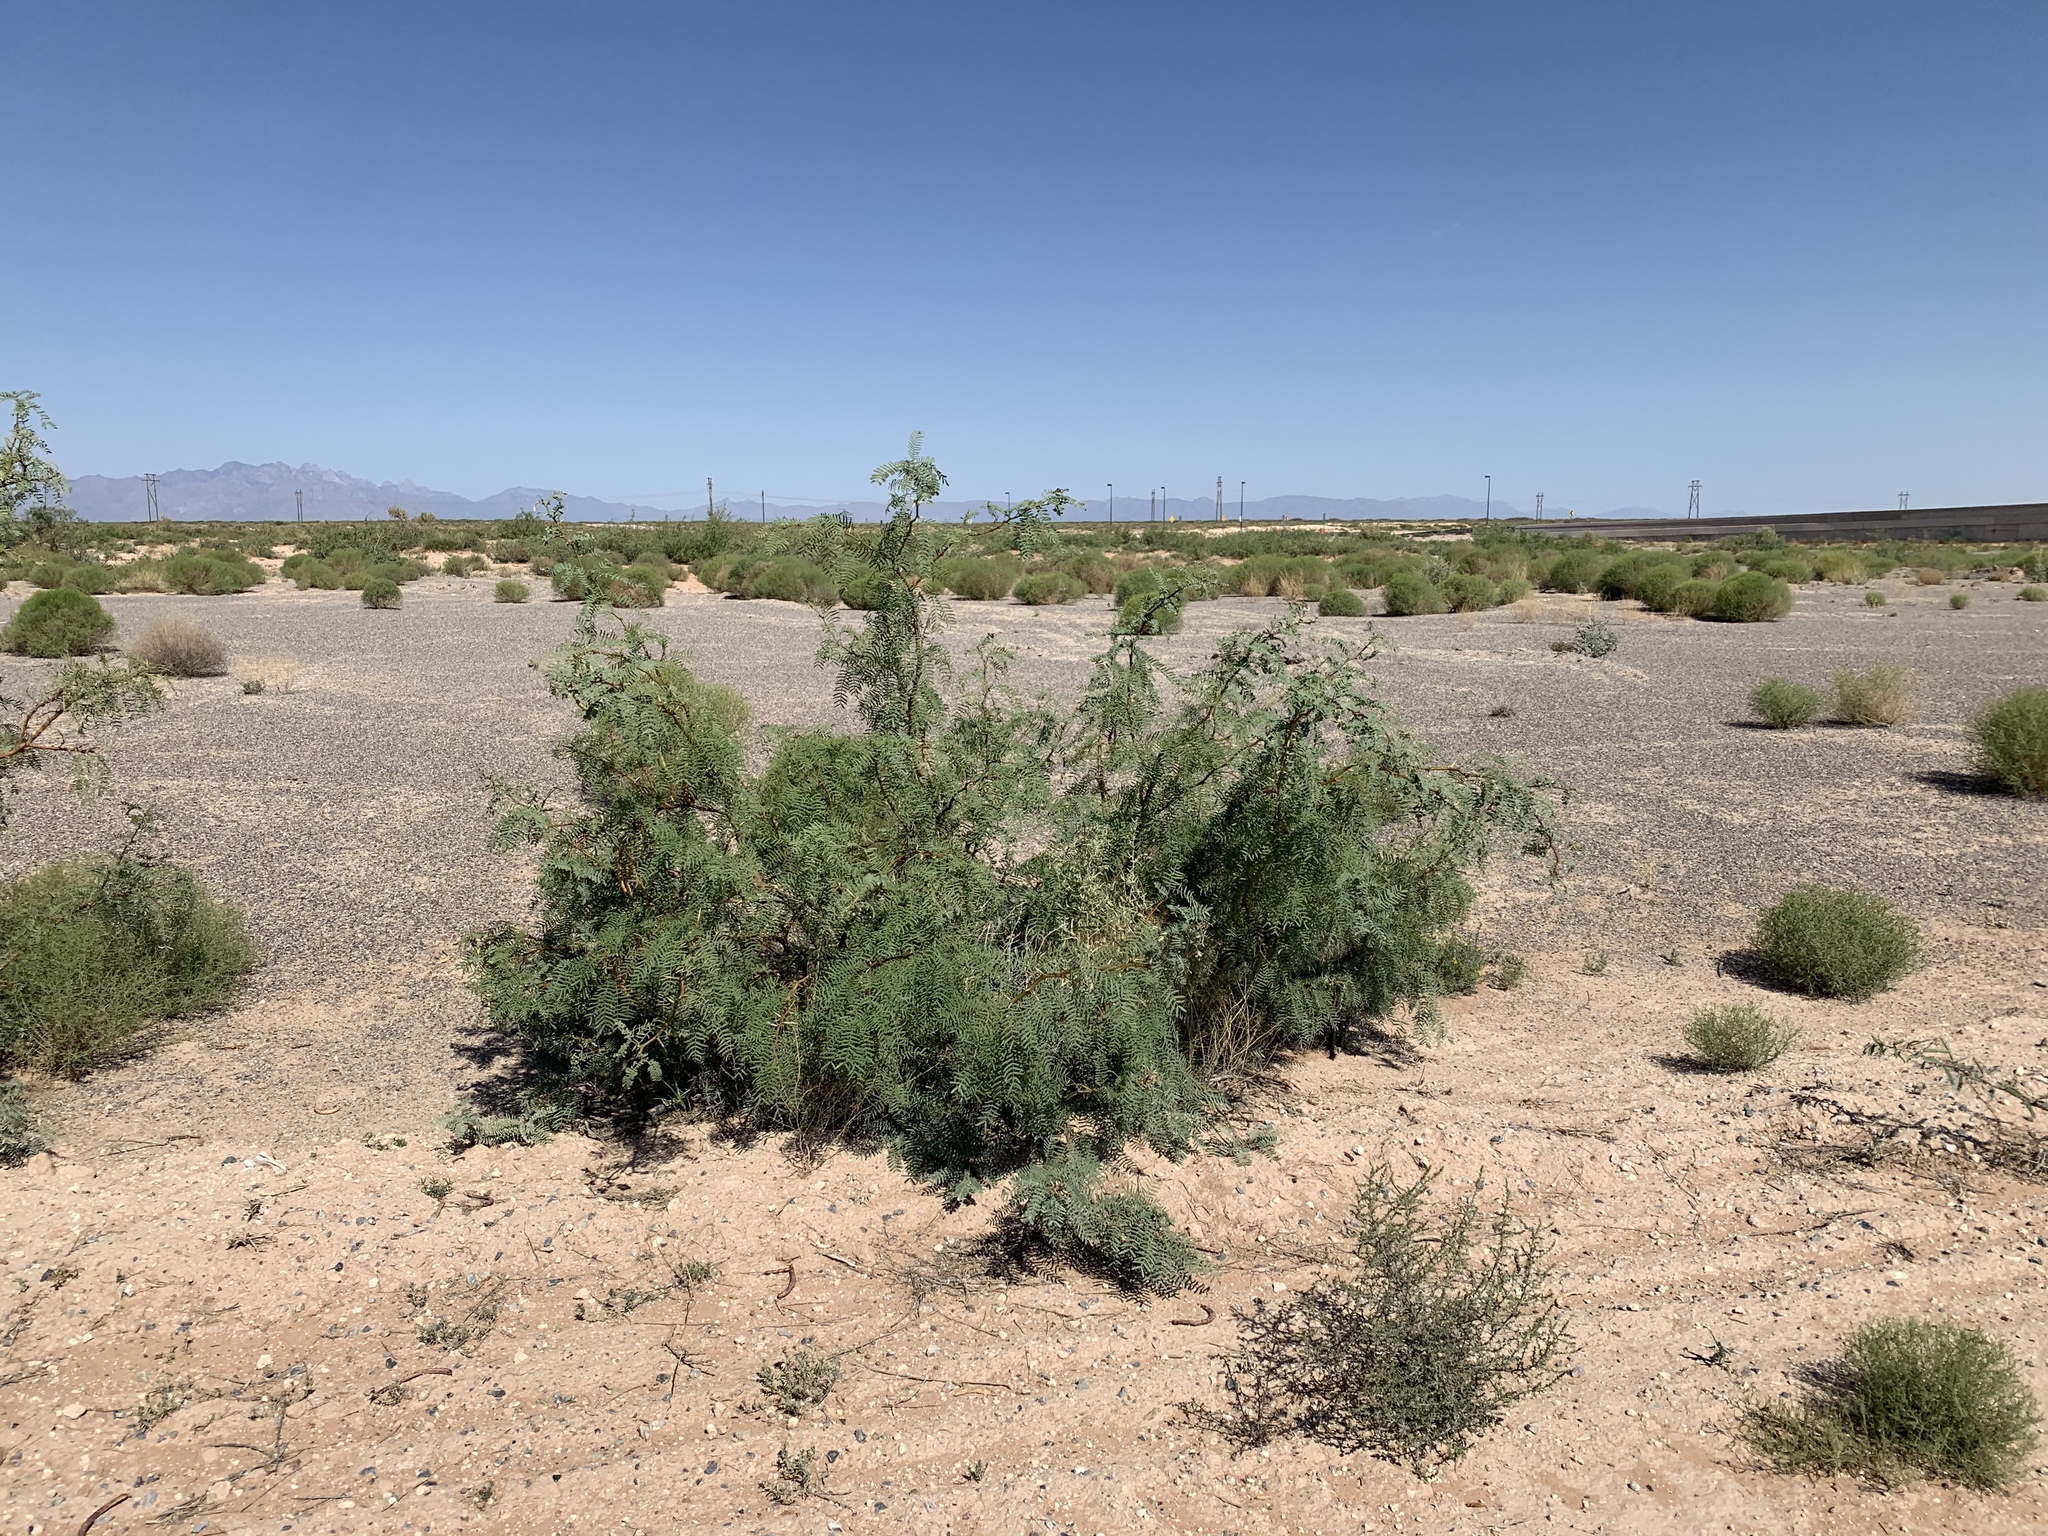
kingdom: Plantae
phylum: Tracheophyta
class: Magnoliopsida
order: Fabales
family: Fabaceae
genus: Prosopis
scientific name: Prosopis glandulosa
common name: Honey mesquite
